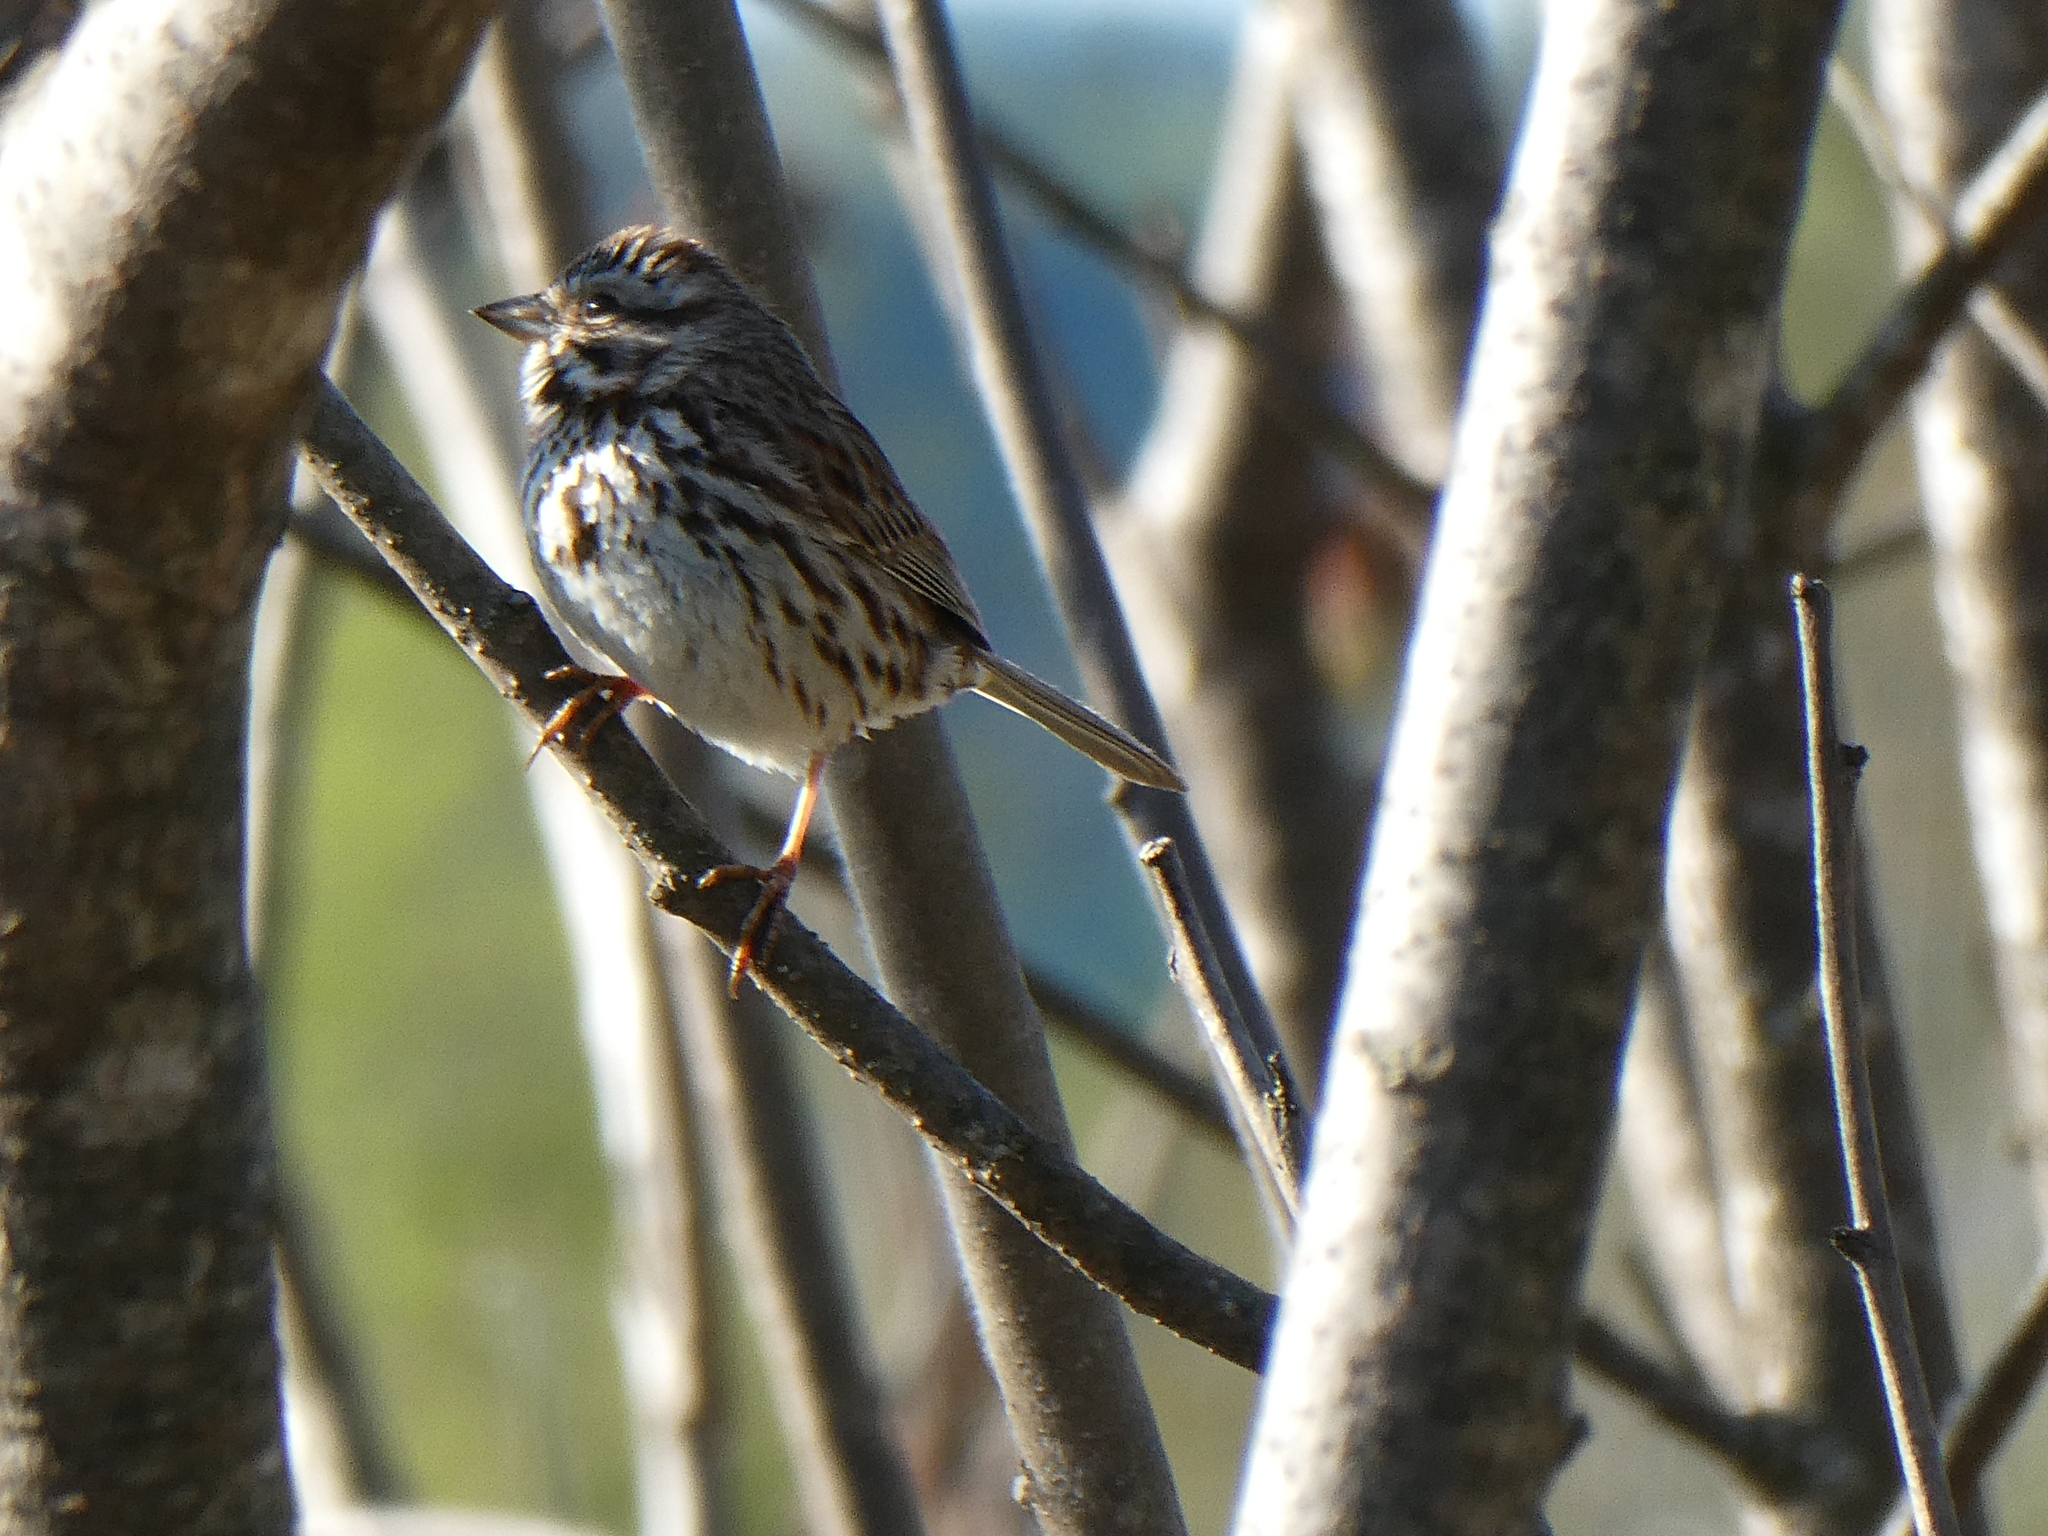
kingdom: Animalia
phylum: Chordata
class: Aves
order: Passeriformes
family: Passerellidae
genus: Melospiza
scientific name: Melospiza melodia
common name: Song sparrow
